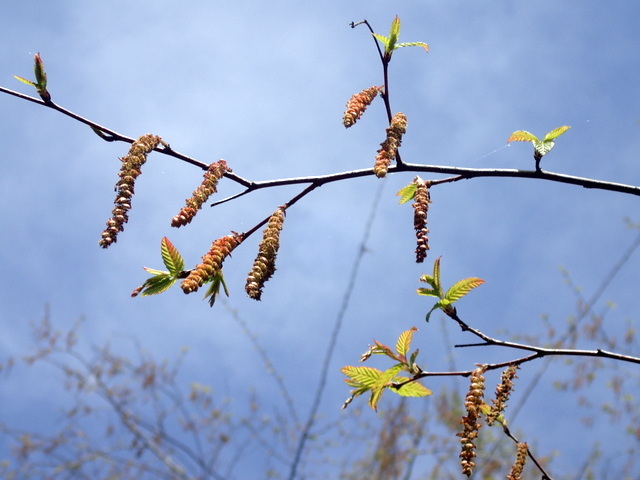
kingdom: Plantae
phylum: Tracheophyta
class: Magnoliopsida
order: Fagales
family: Betulaceae
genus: Carpinus
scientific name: Carpinus caroliniana
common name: American hornbeam
